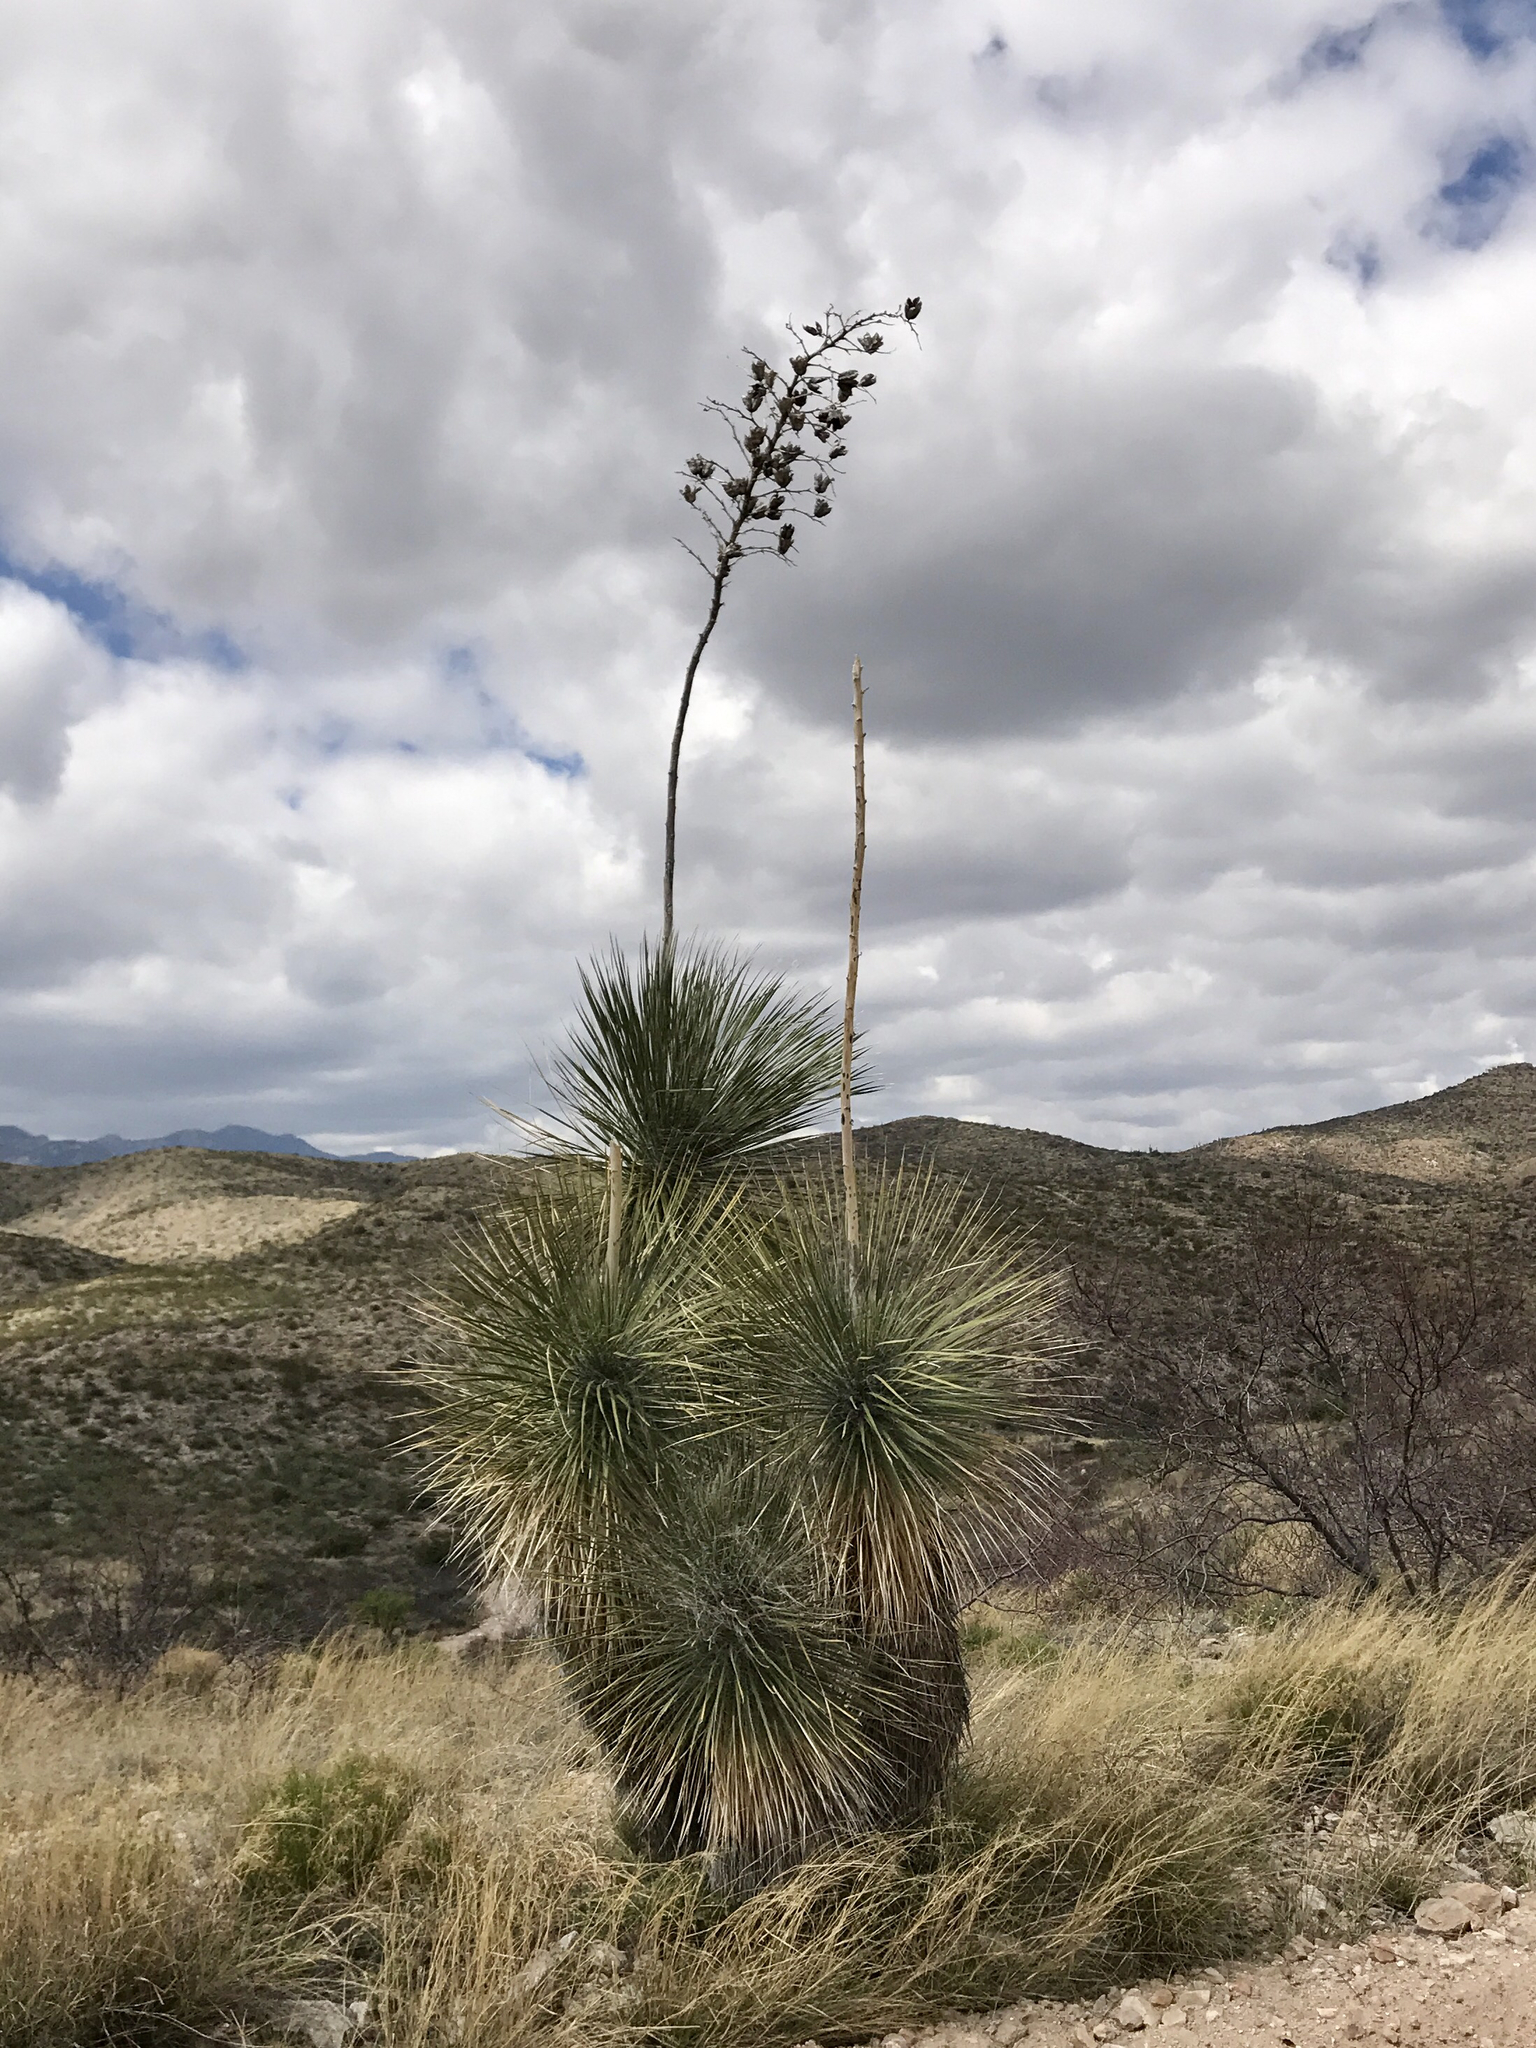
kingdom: Plantae
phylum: Tracheophyta
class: Liliopsida
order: Asparagales
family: Asparagaceae
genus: Yucca
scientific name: Yucca elata
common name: Palmella
